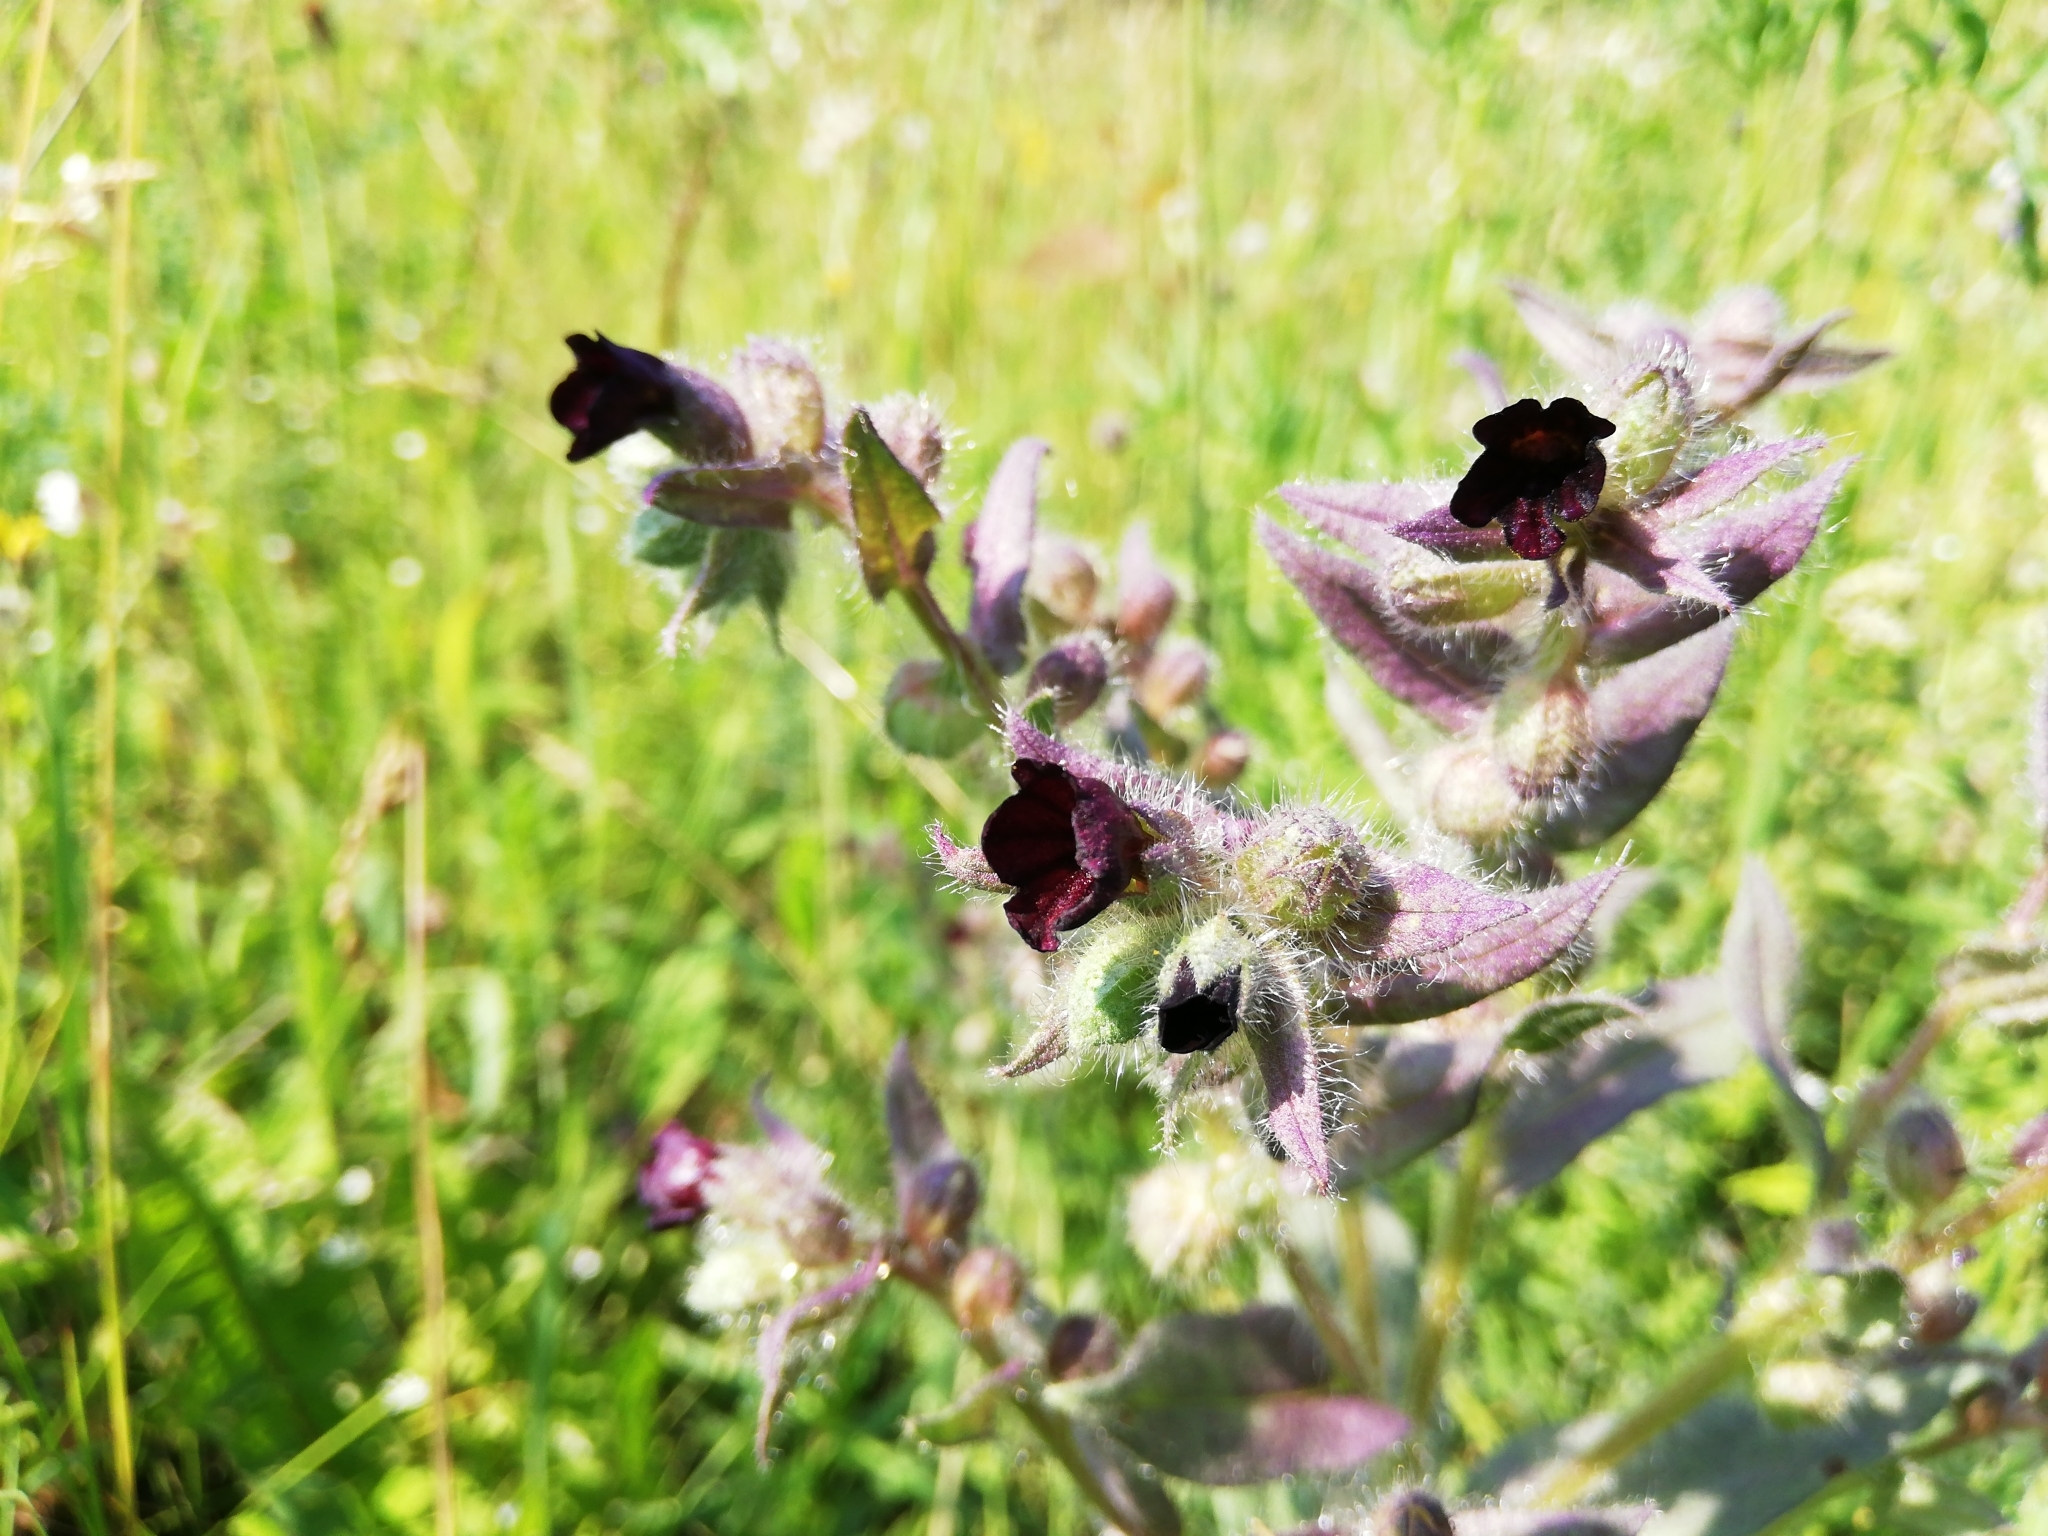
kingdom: Plantae
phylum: Tracheophyta
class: Magnoliopsida
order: Boraginales
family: Boraginaceae
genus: Nonea
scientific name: Nonea pulla
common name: Brown nonea
